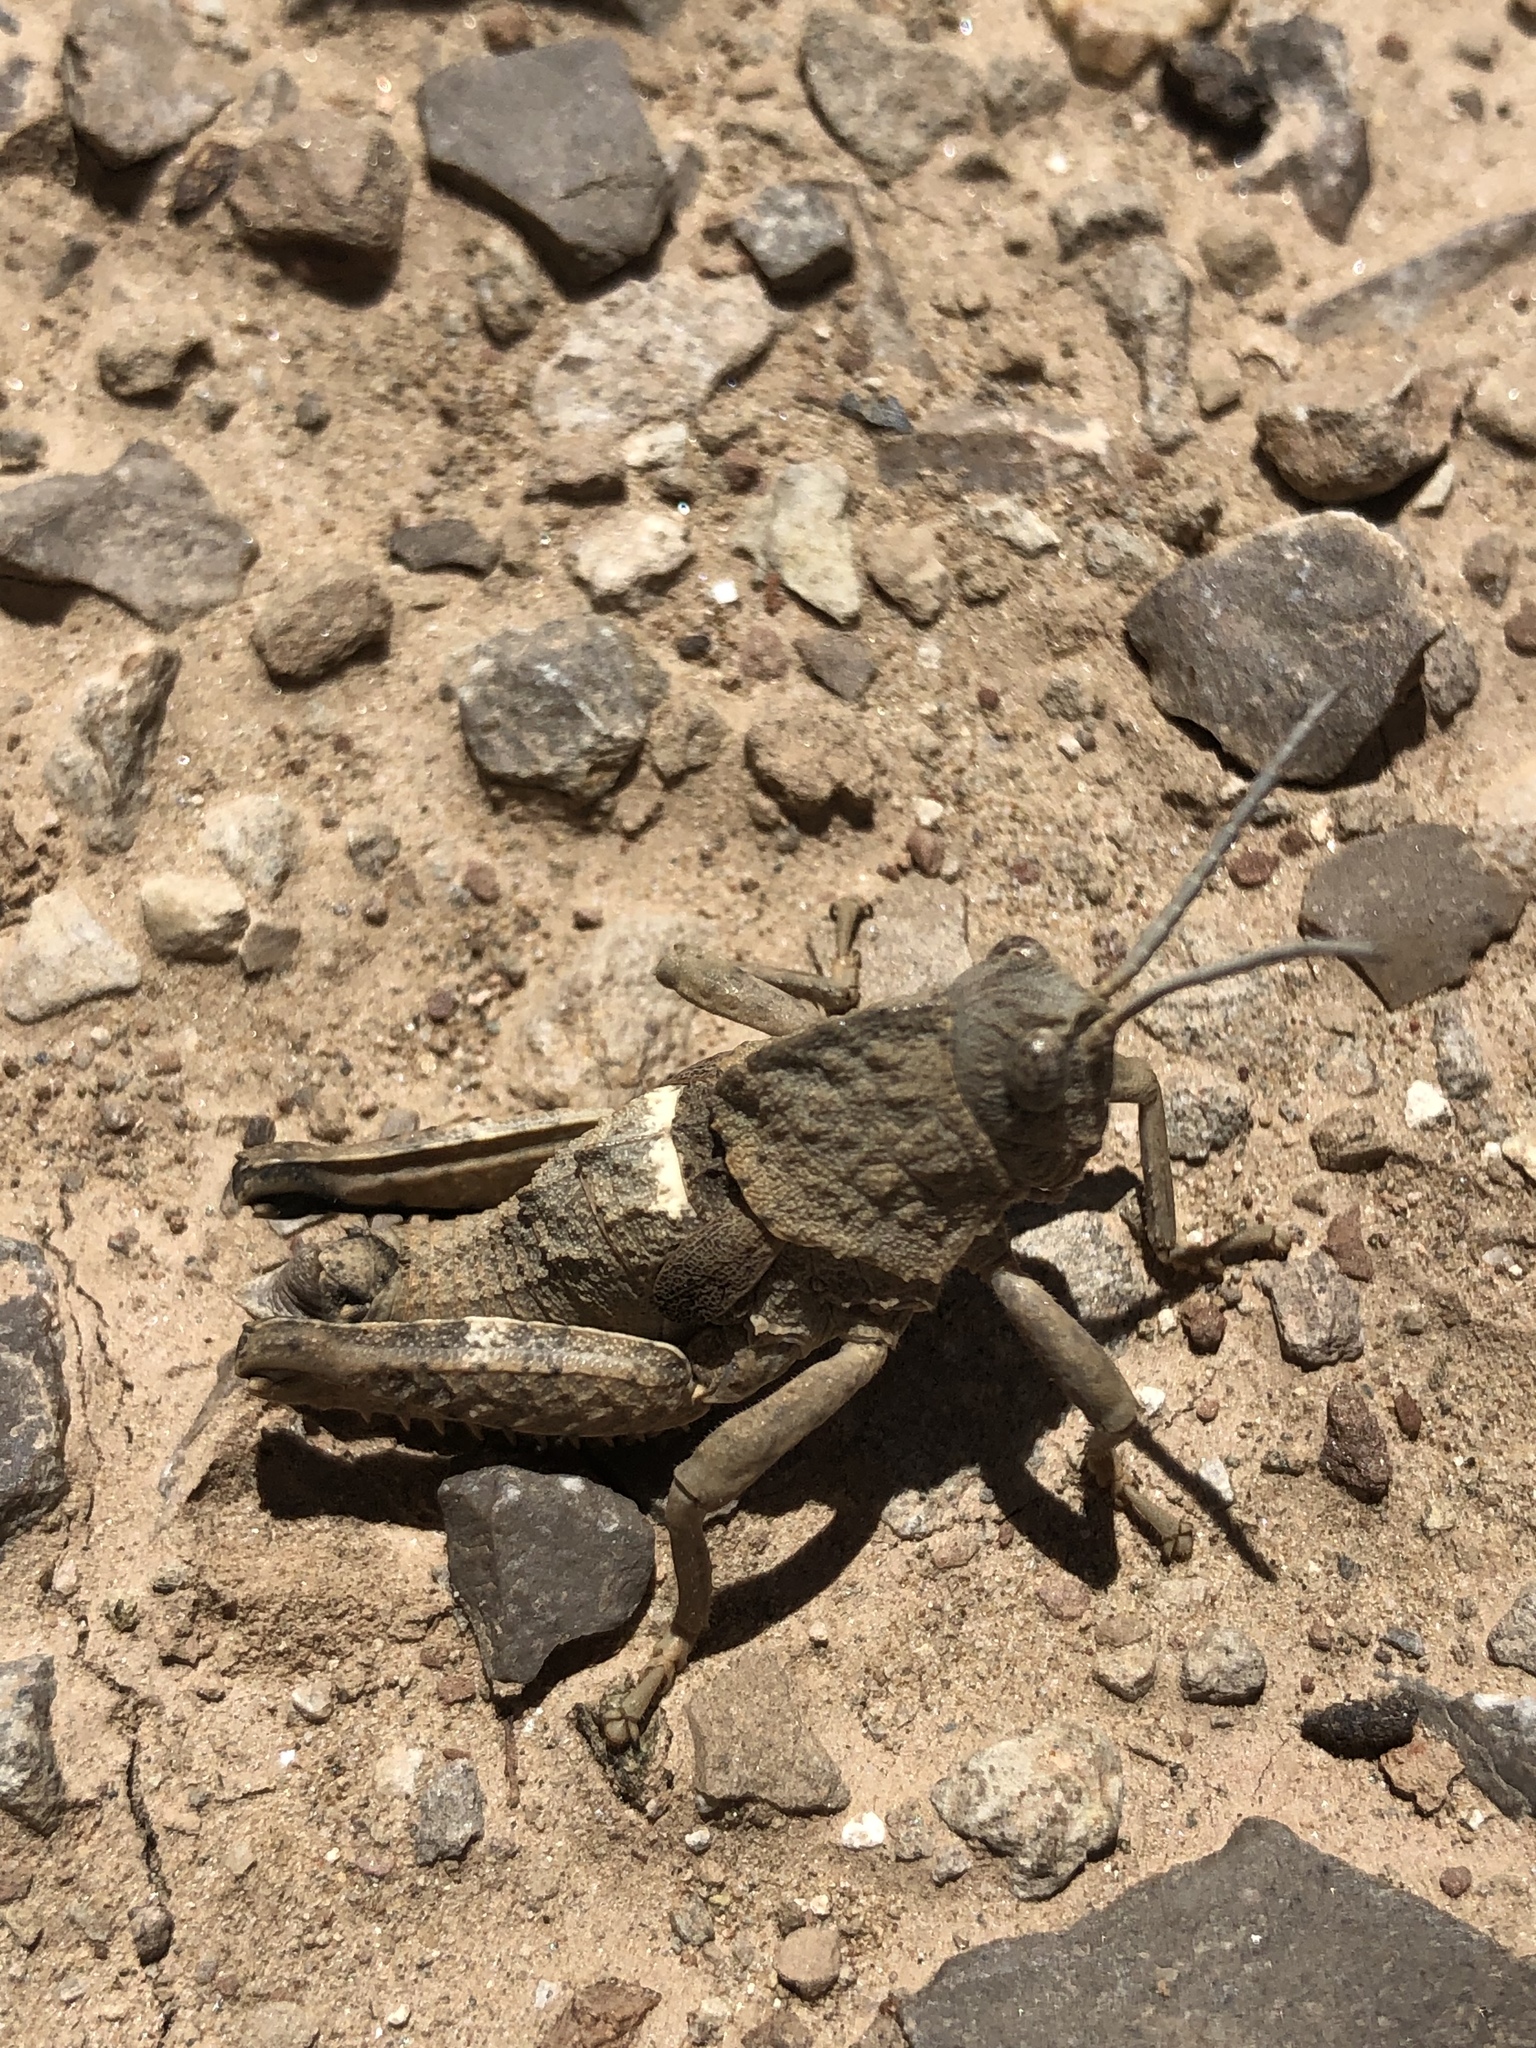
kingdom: Animalia
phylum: Arthropoda
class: Insecta
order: Orthoptera
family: Pamphagidae
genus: Ocnerodes
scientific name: Ocnerodes brunnerii
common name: Brunner's stone grasshopper
